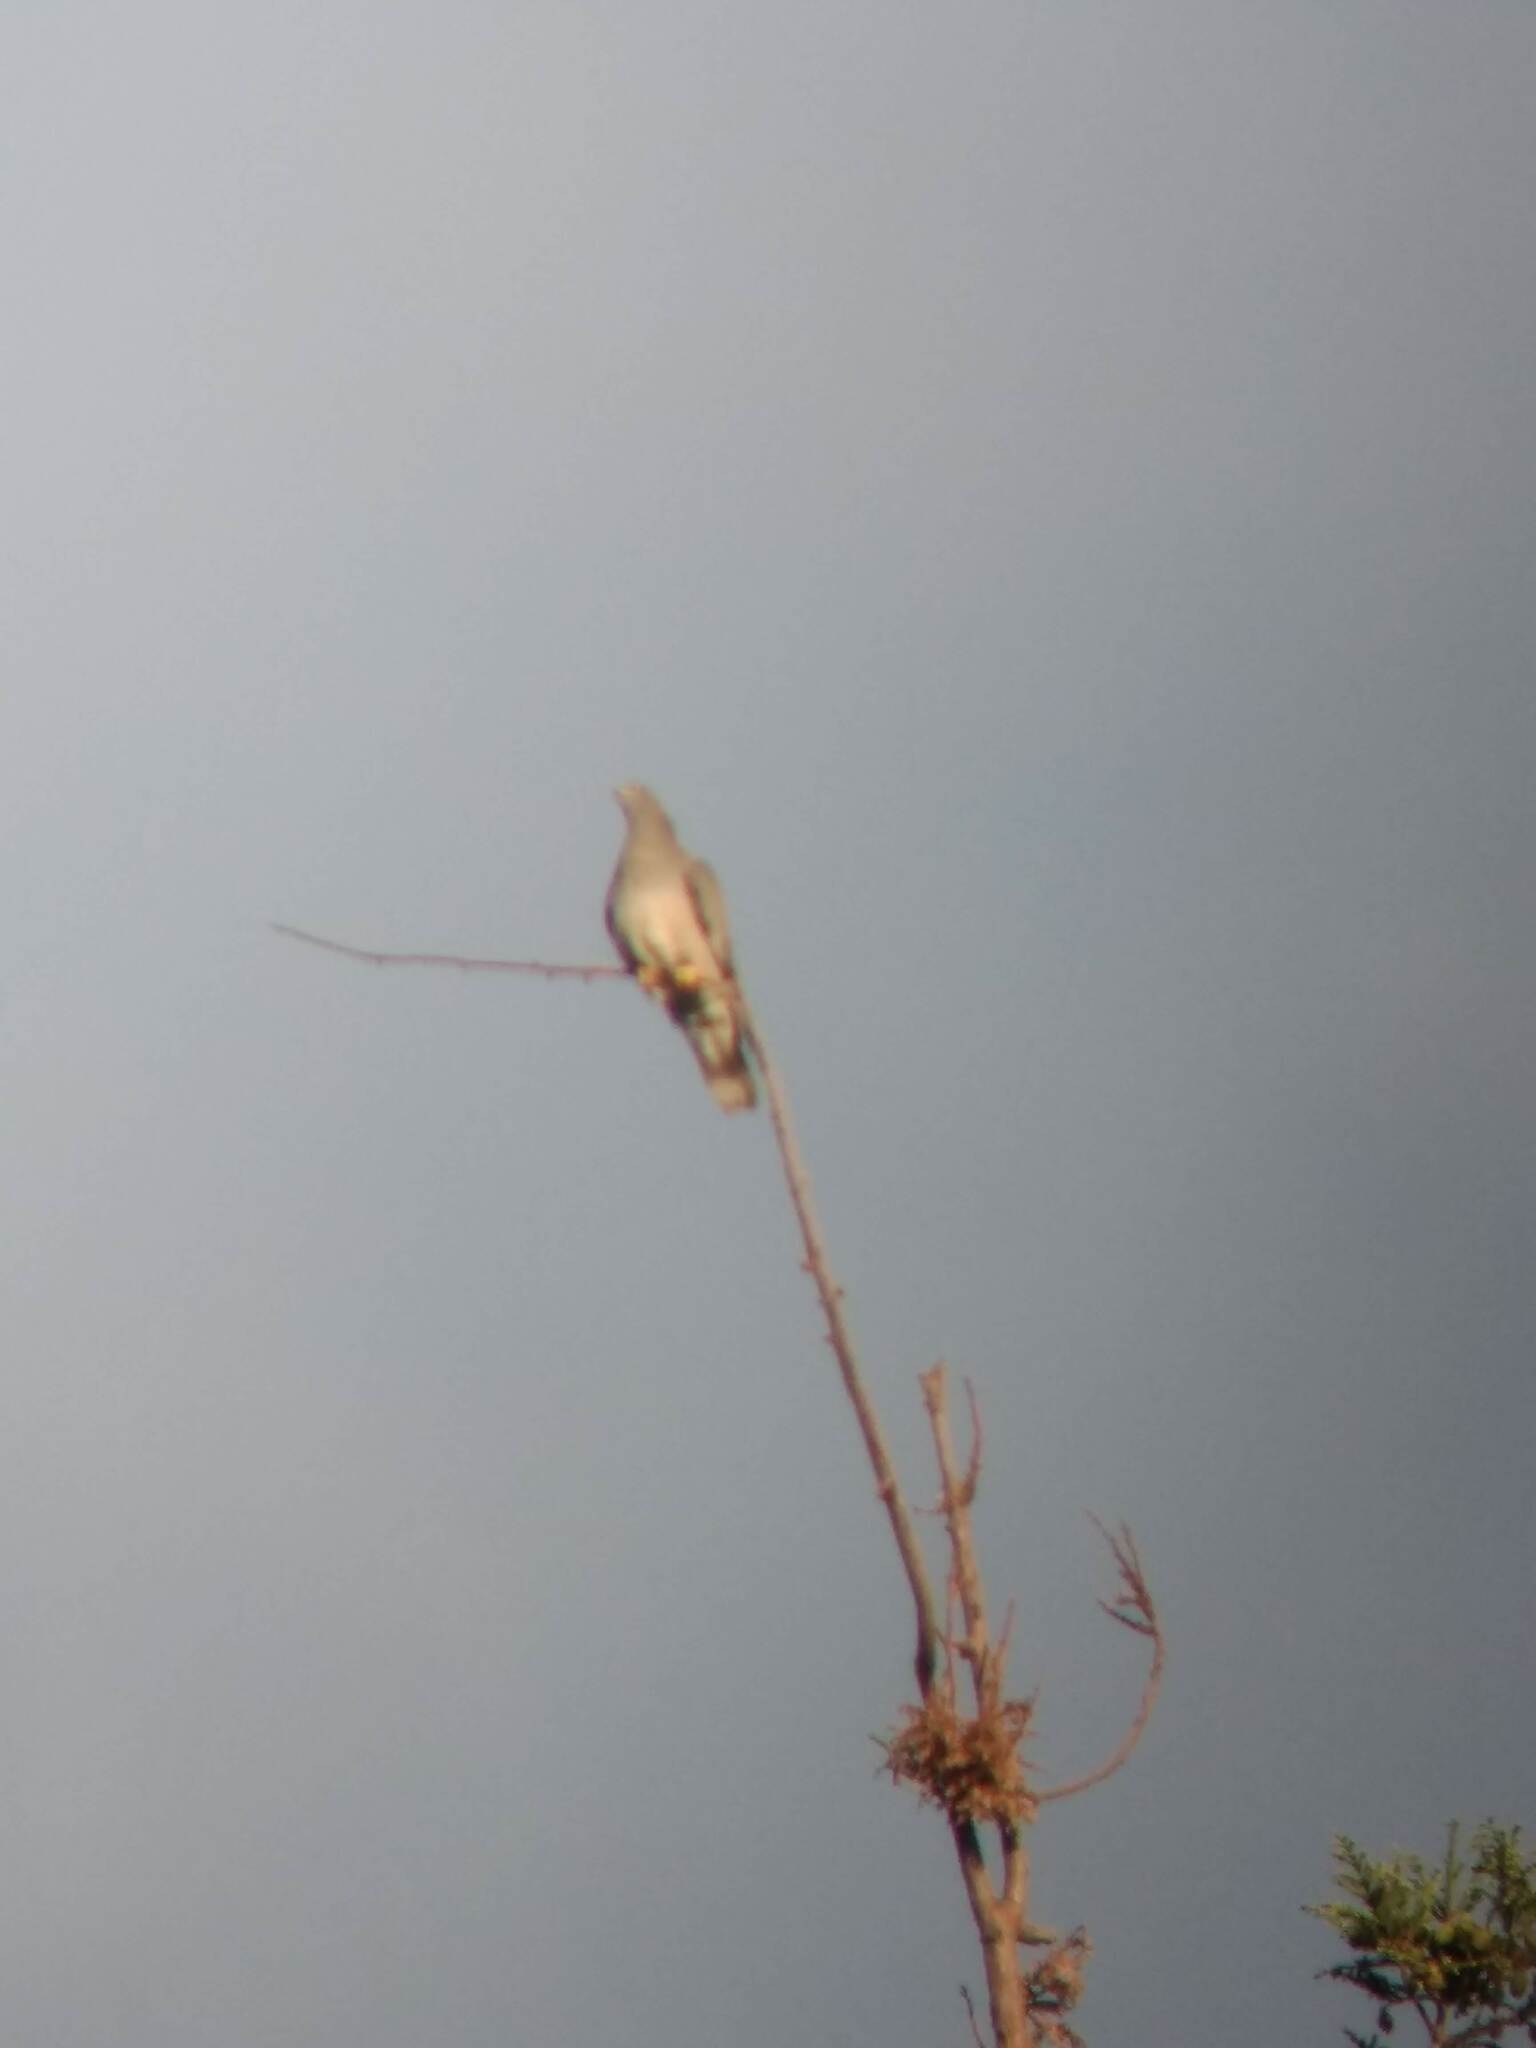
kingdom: Animalia
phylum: Chordata
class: Aves
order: Columbiformes
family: Columbidae
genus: Patagioenas
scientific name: Patagioenas fasciata
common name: Band-tailed pigeon
